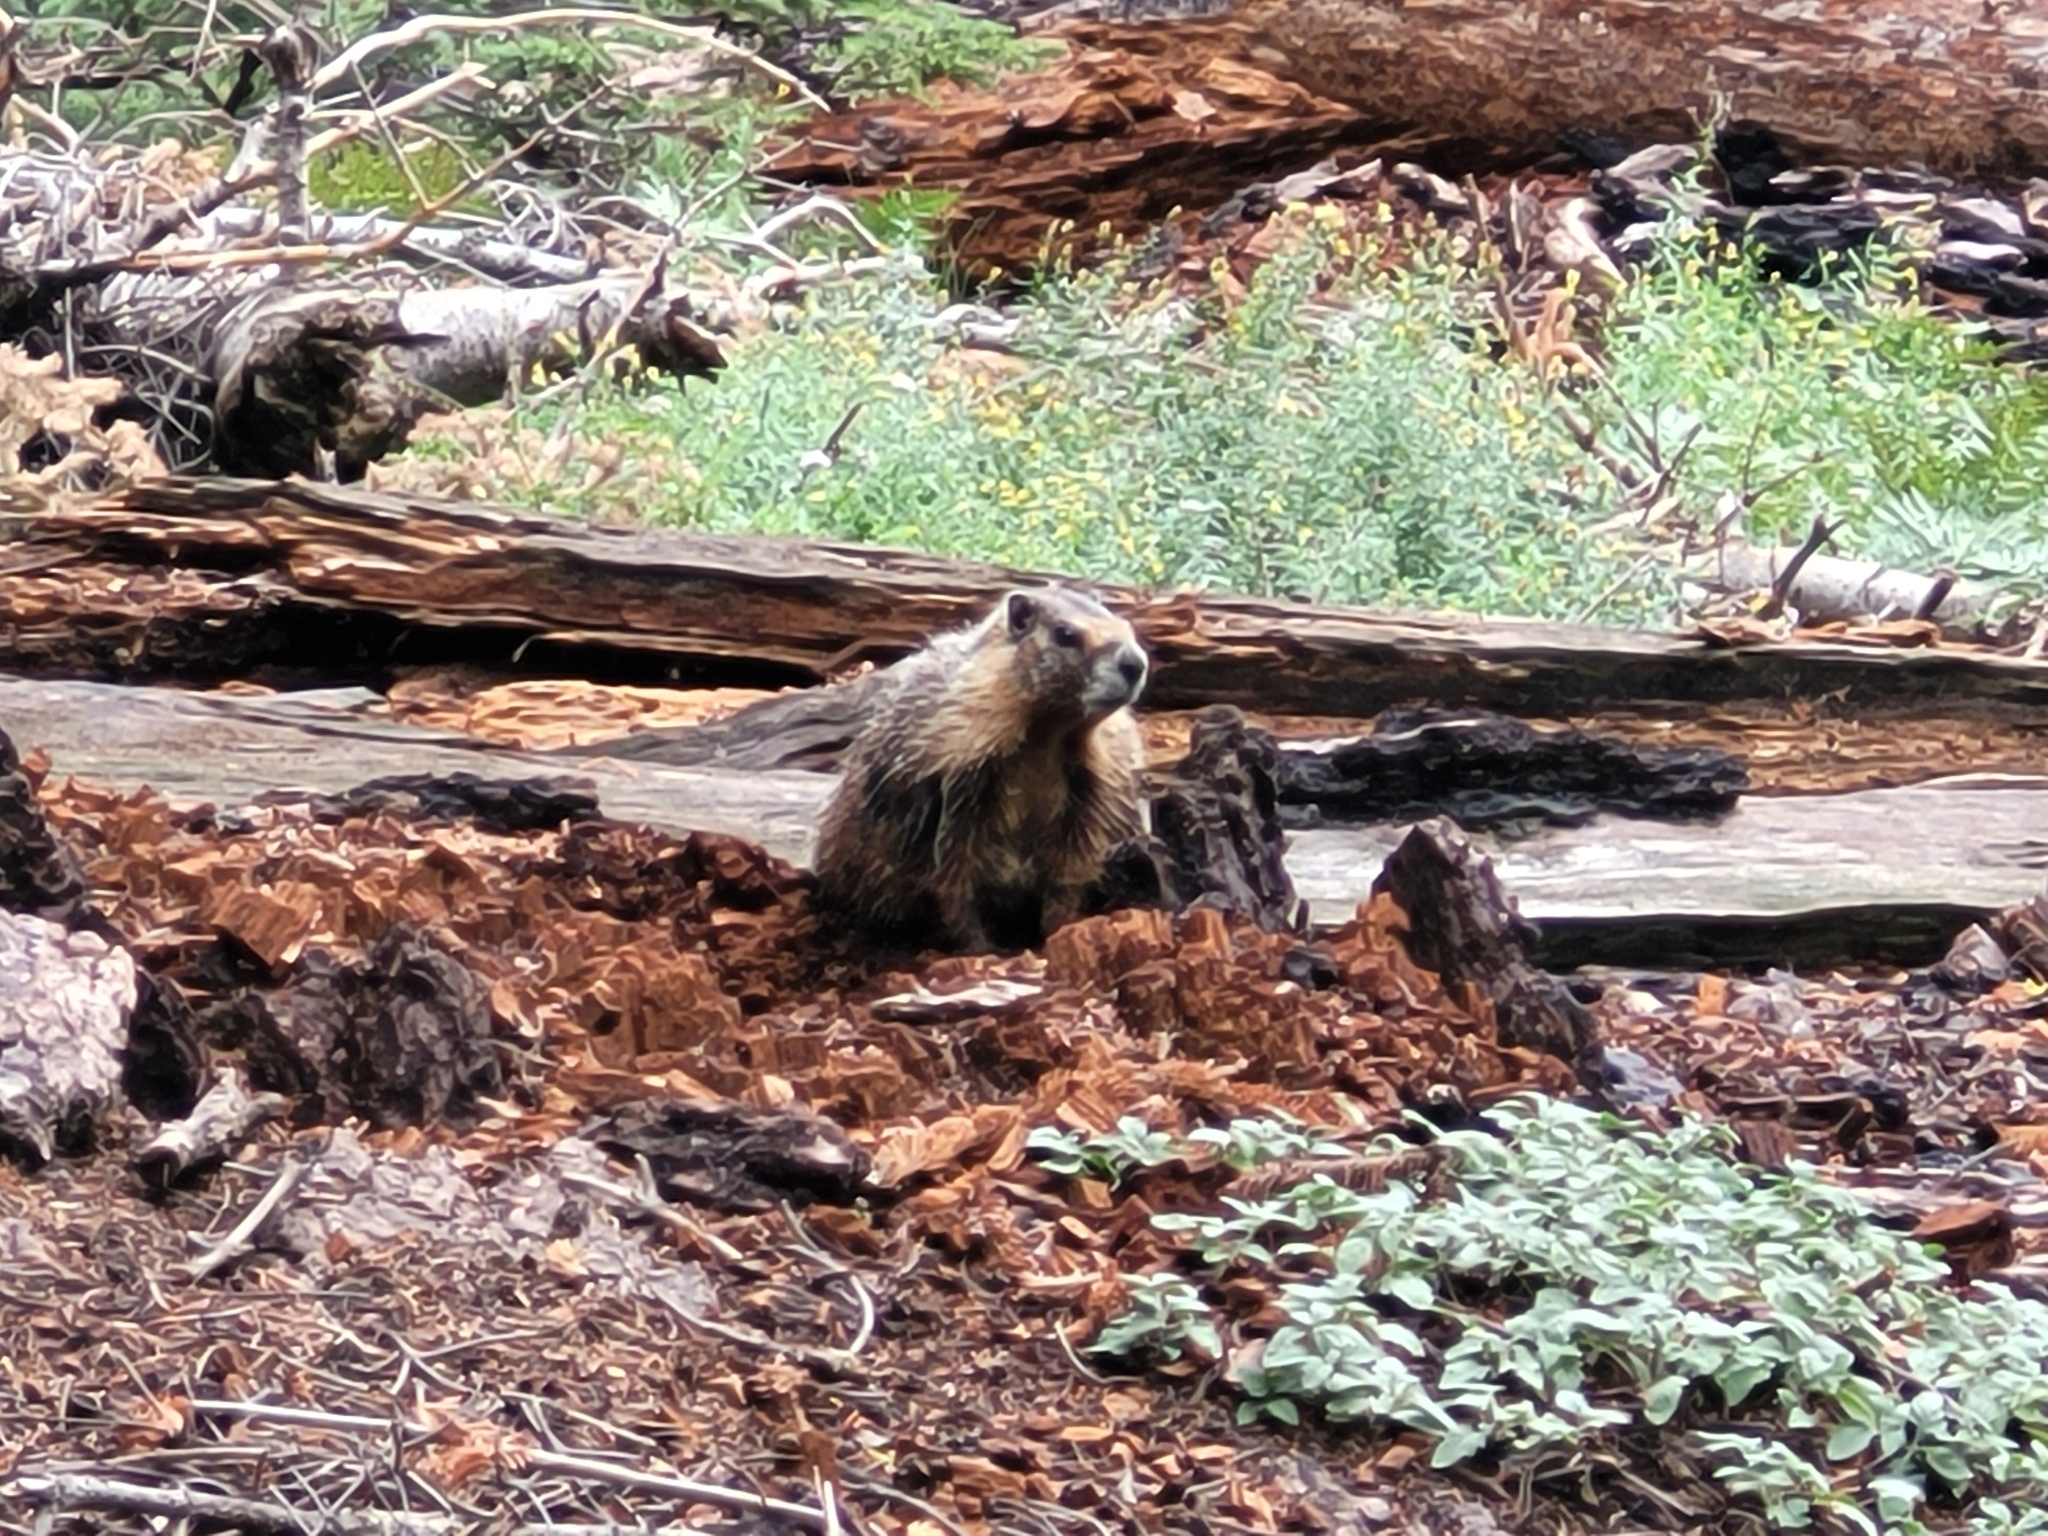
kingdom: Animalia
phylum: Chordata
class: Mammalia
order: Rodentia
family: Sciuridae
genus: Marmota
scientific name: Marmota flaviventris
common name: Yellow-bellied marmot
